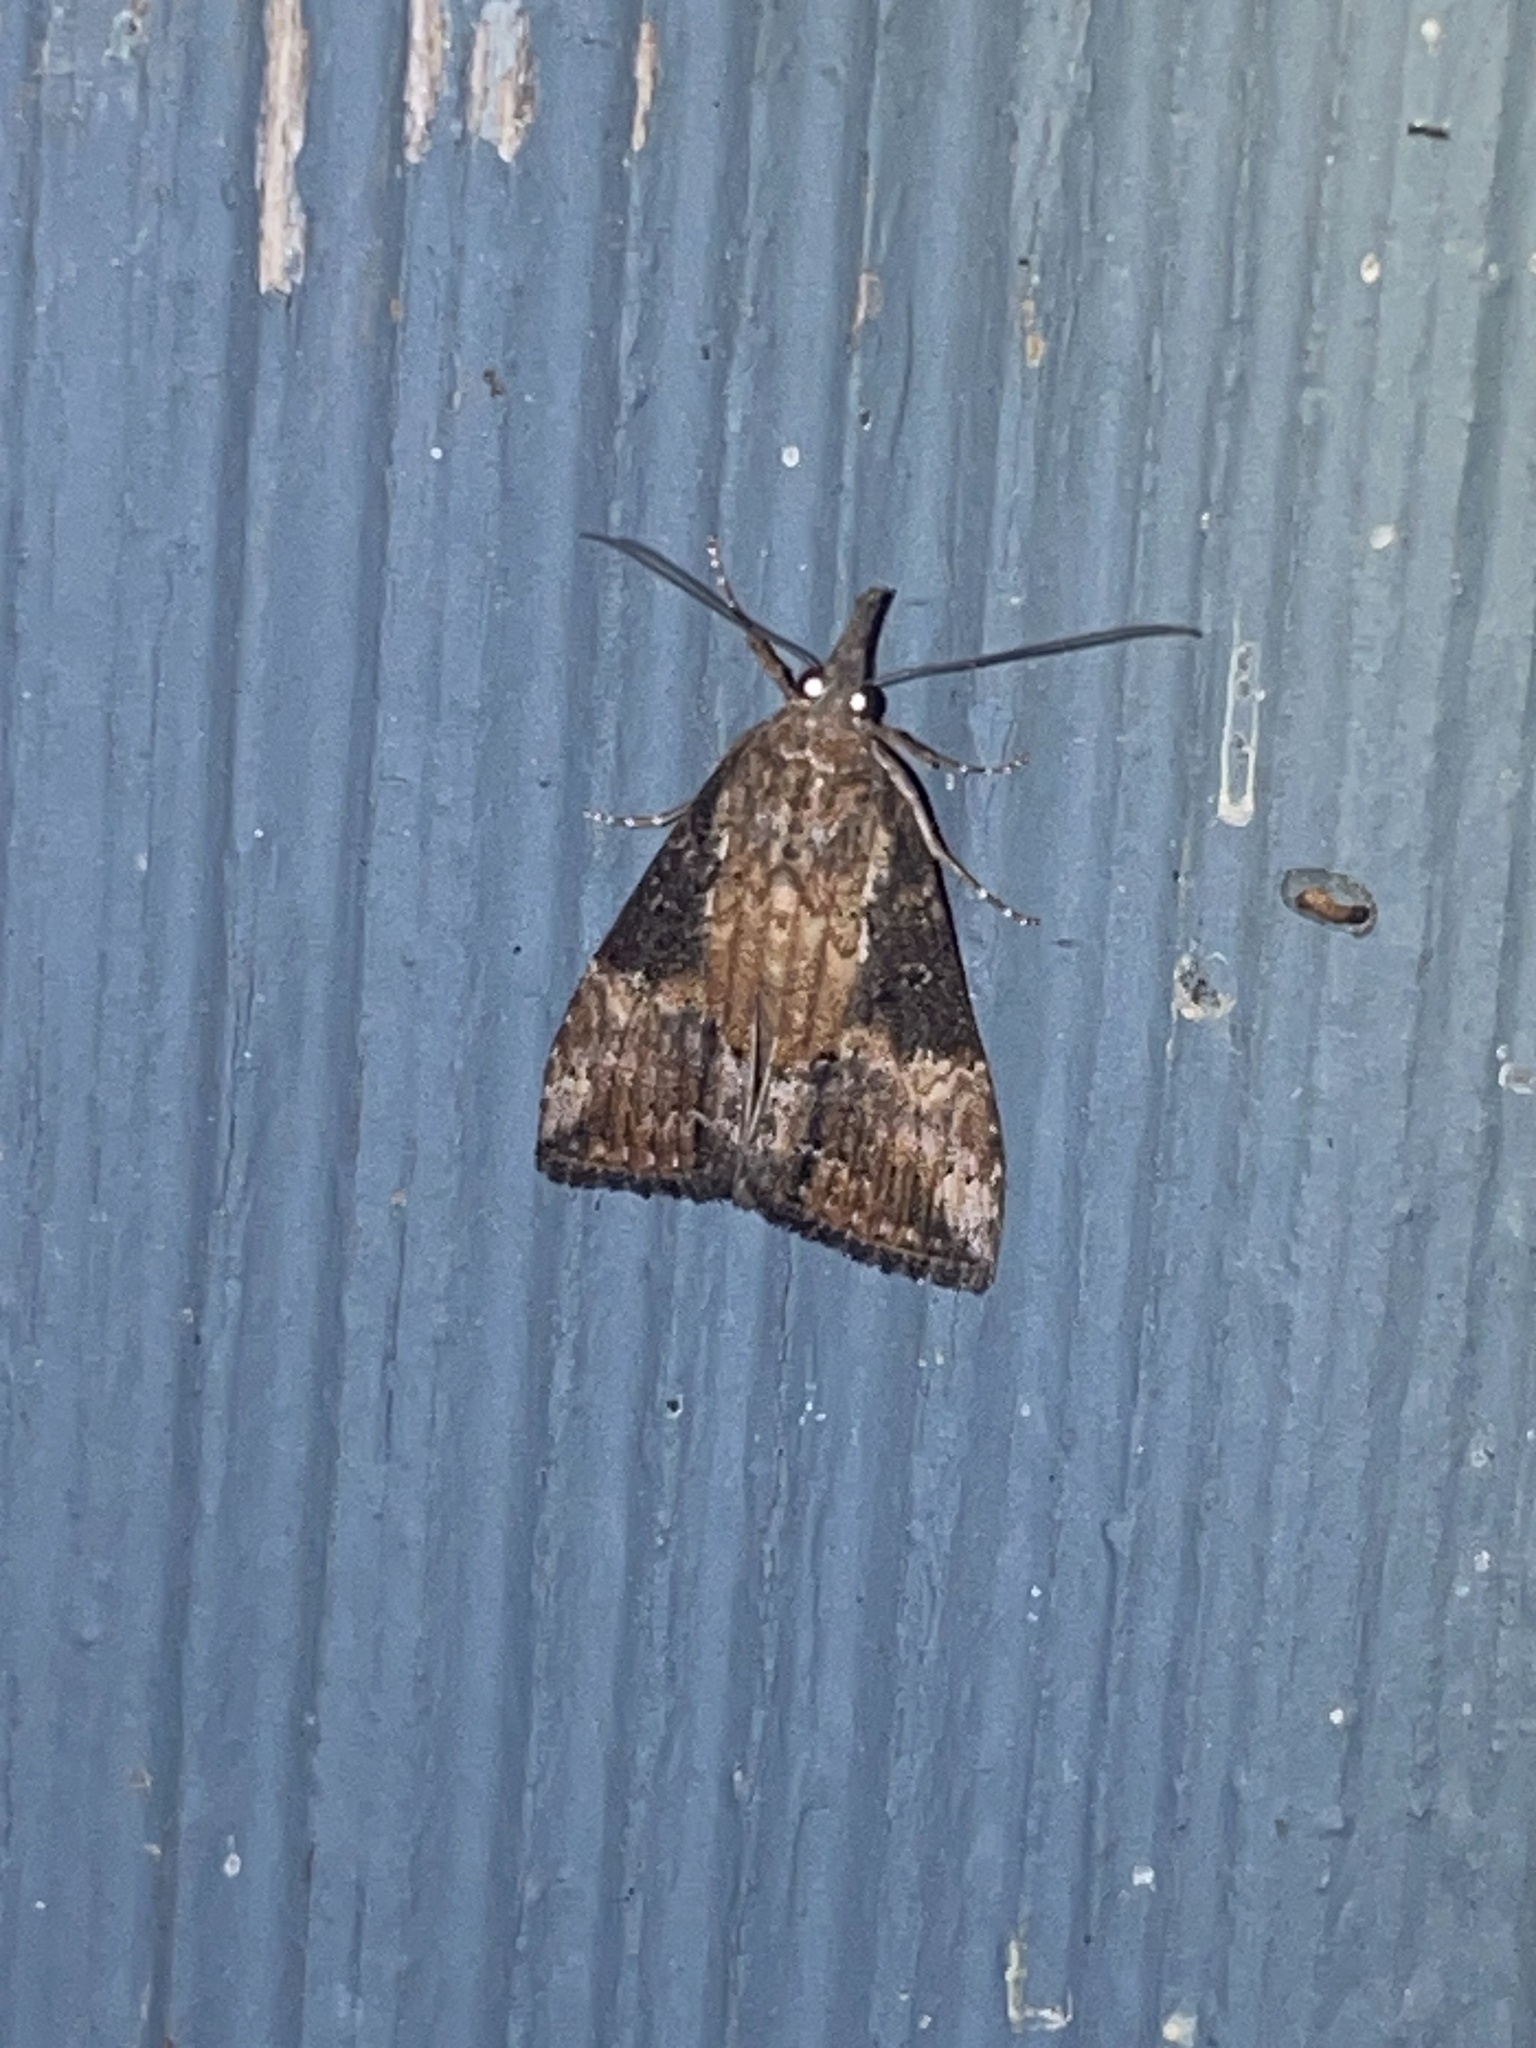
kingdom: Animalia
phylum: Arthropoda
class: Insecta
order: Lepidoptera
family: Erebidae
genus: Hypena
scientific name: Hypena scabra
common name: Green cloverworm
